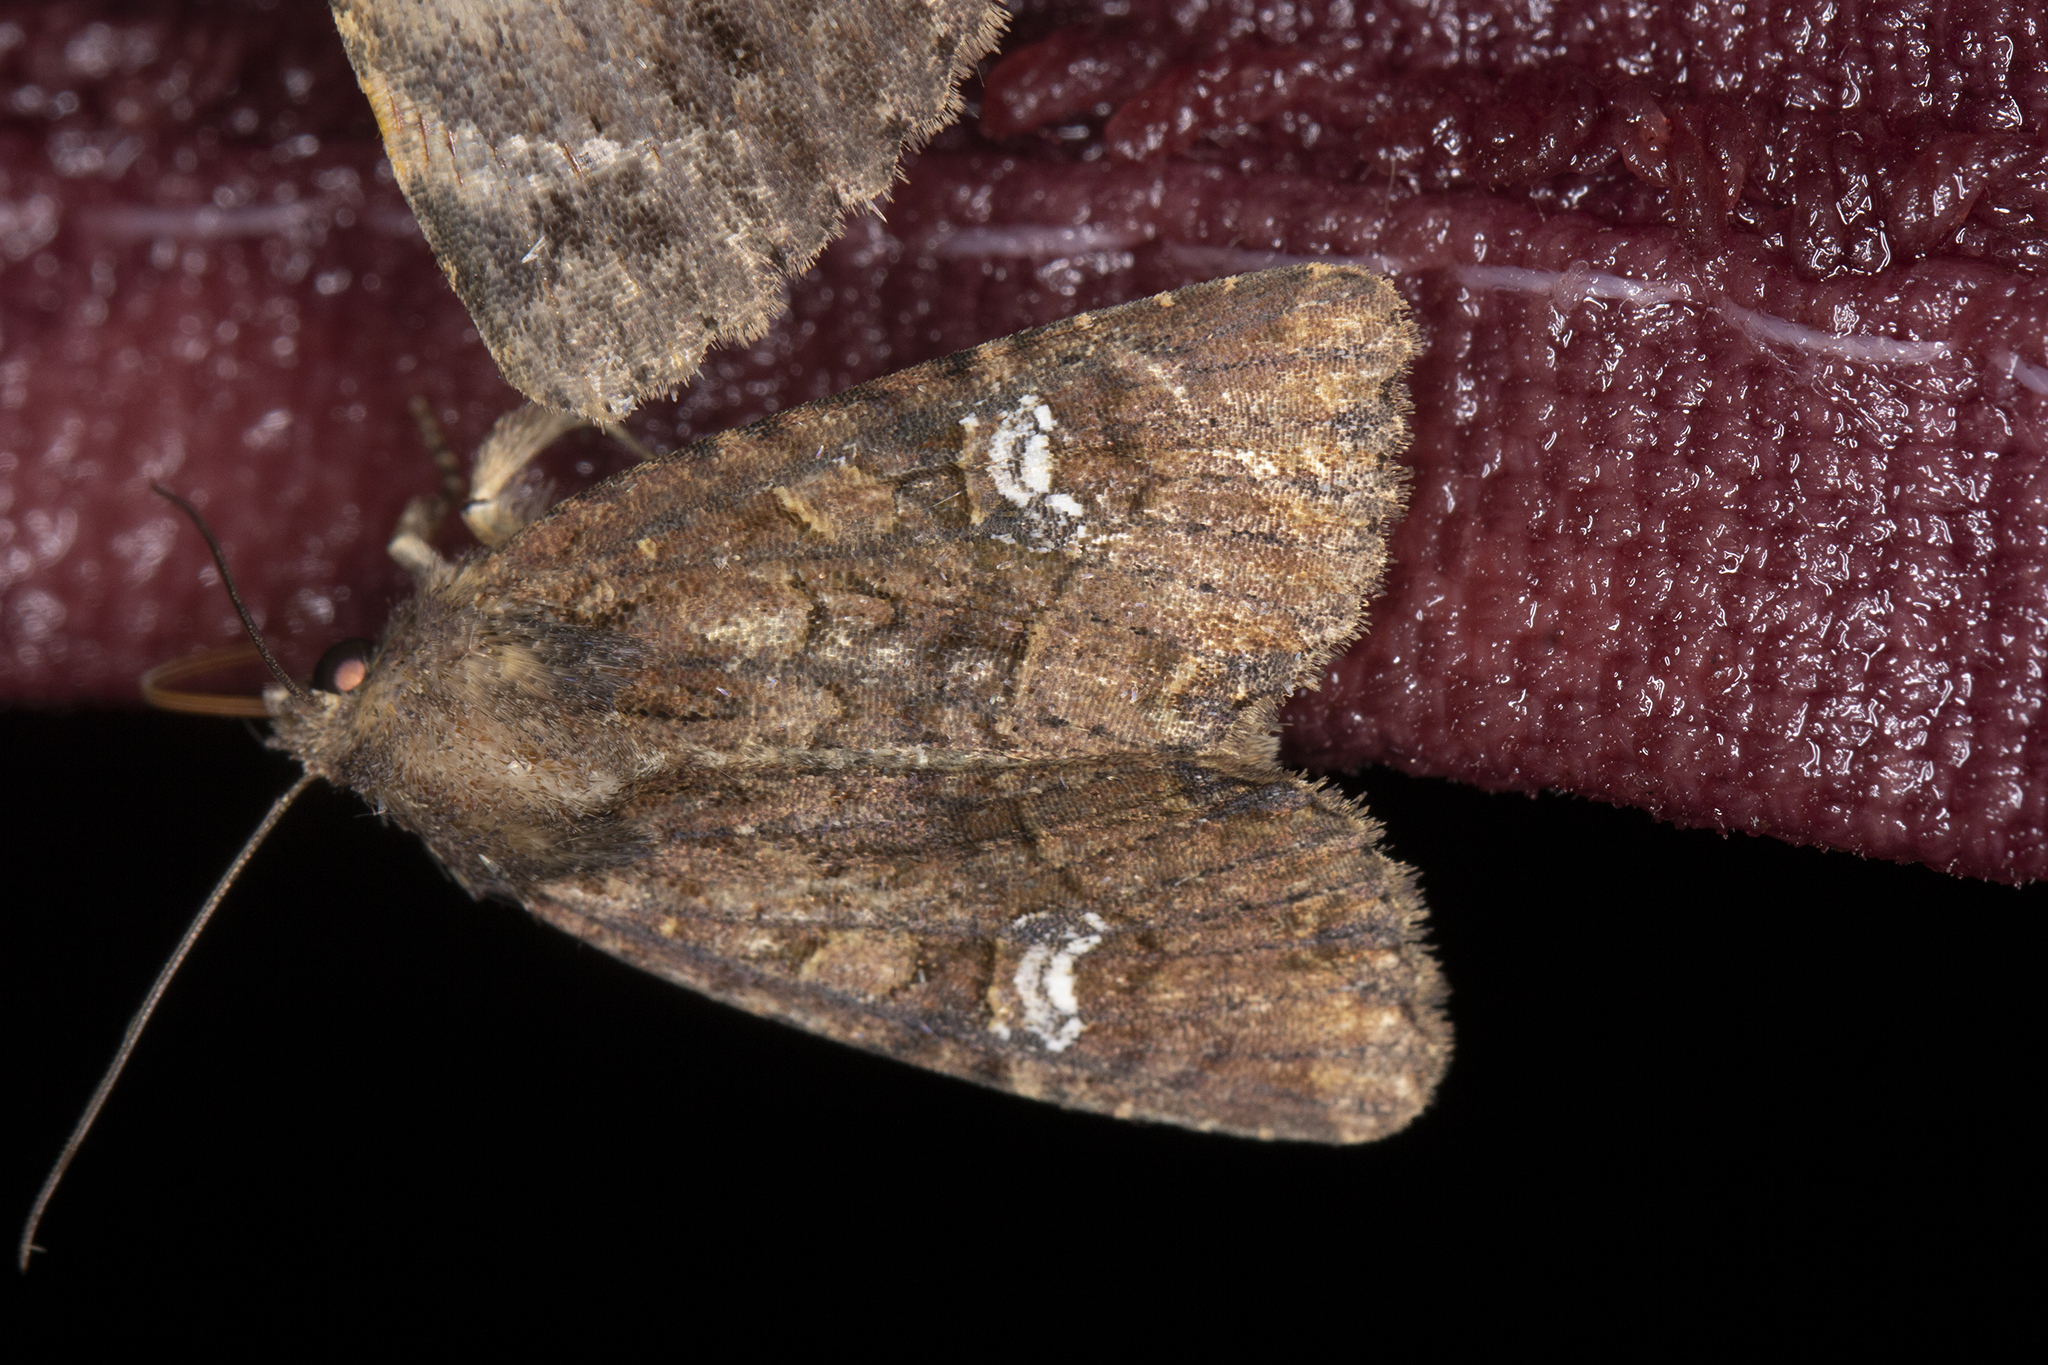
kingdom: Animalia
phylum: Arthropoda
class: Insecta
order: Lepidoptera
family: Noctuidae
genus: Mesapamea
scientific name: Mesapamea
